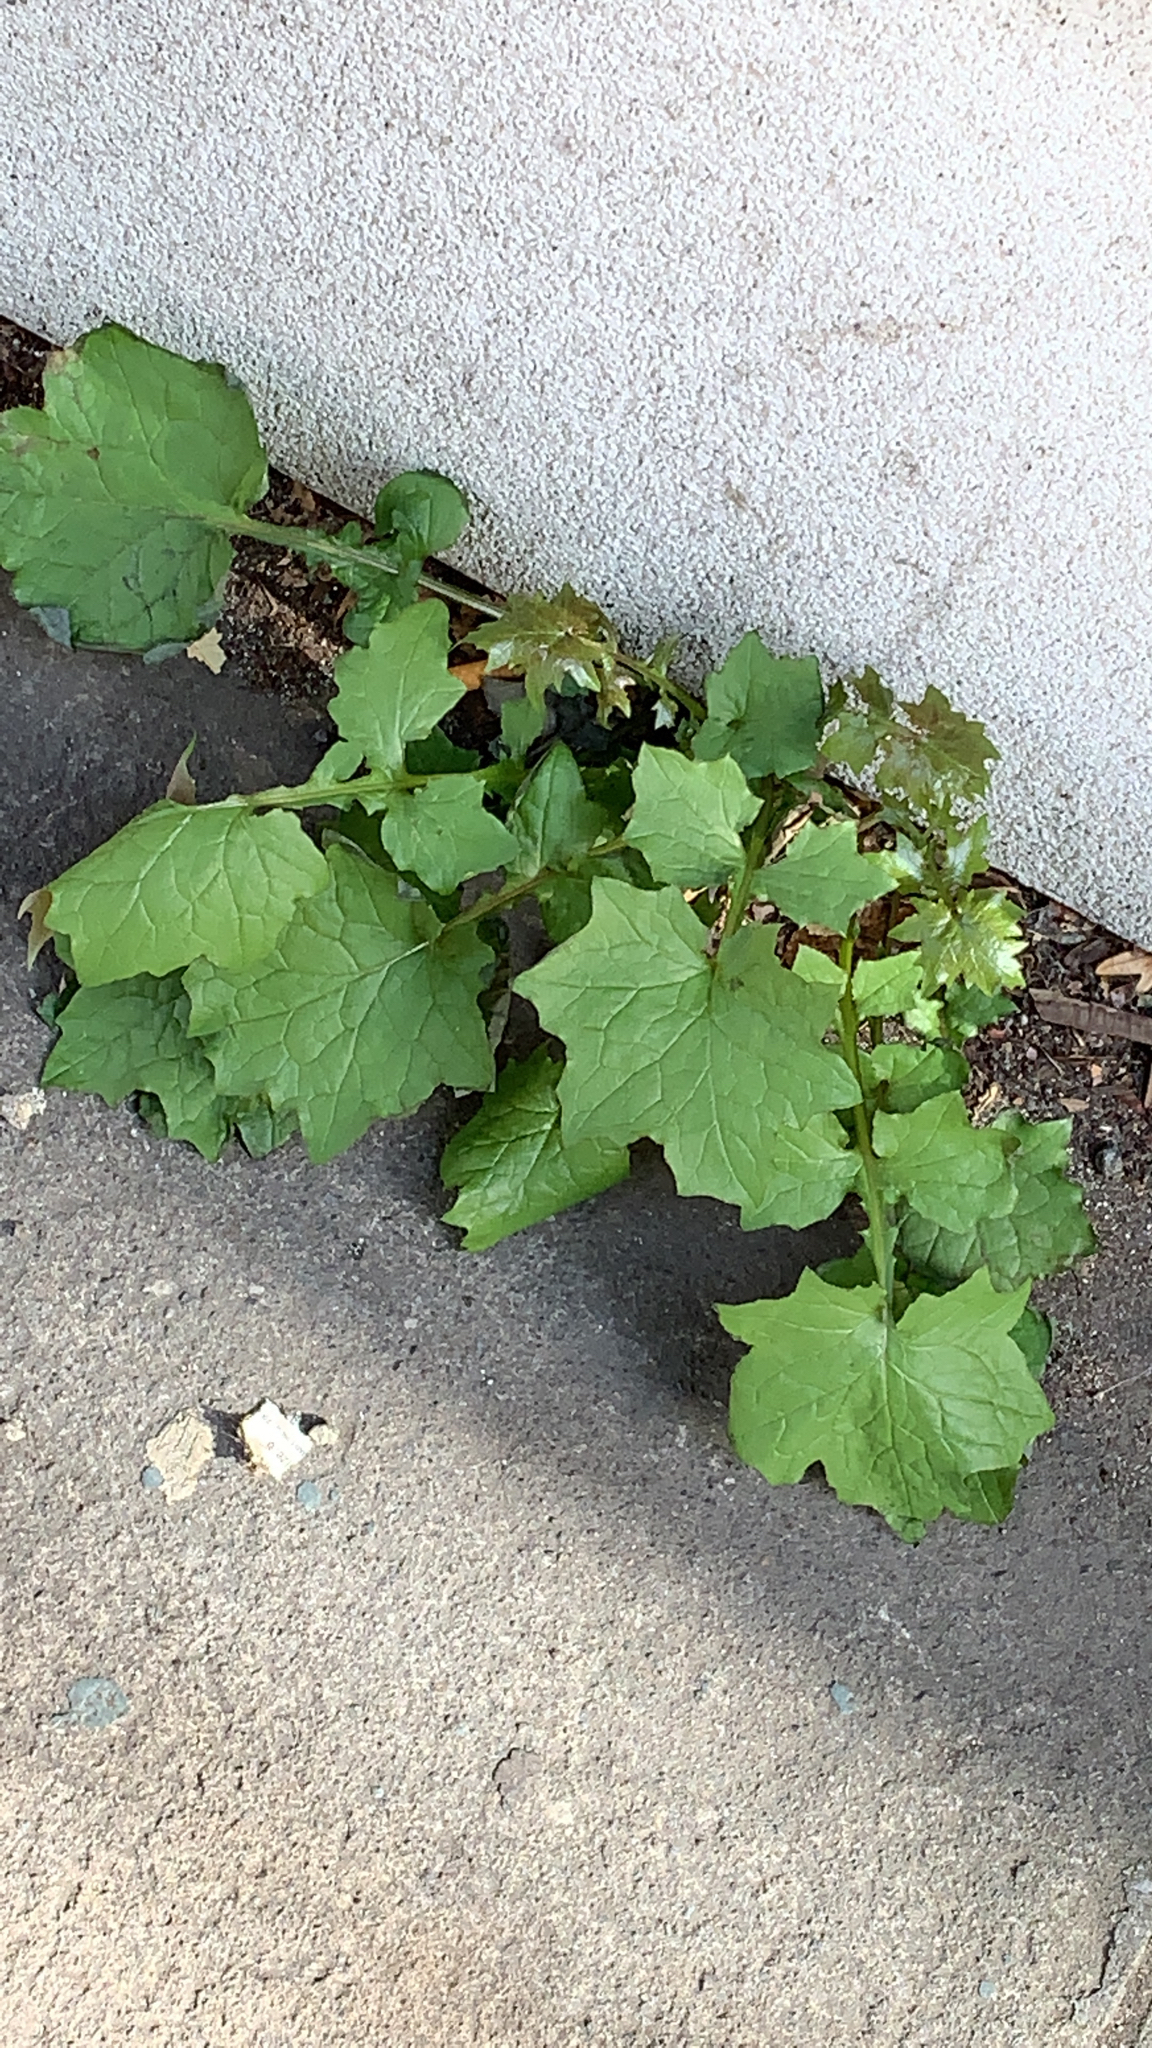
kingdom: Plantae
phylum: Tracheophyta
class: Magnoliopsida
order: Asterales
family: Asteraceae
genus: Mycelis
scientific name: Mycelis muralis
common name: Wall lettuce
